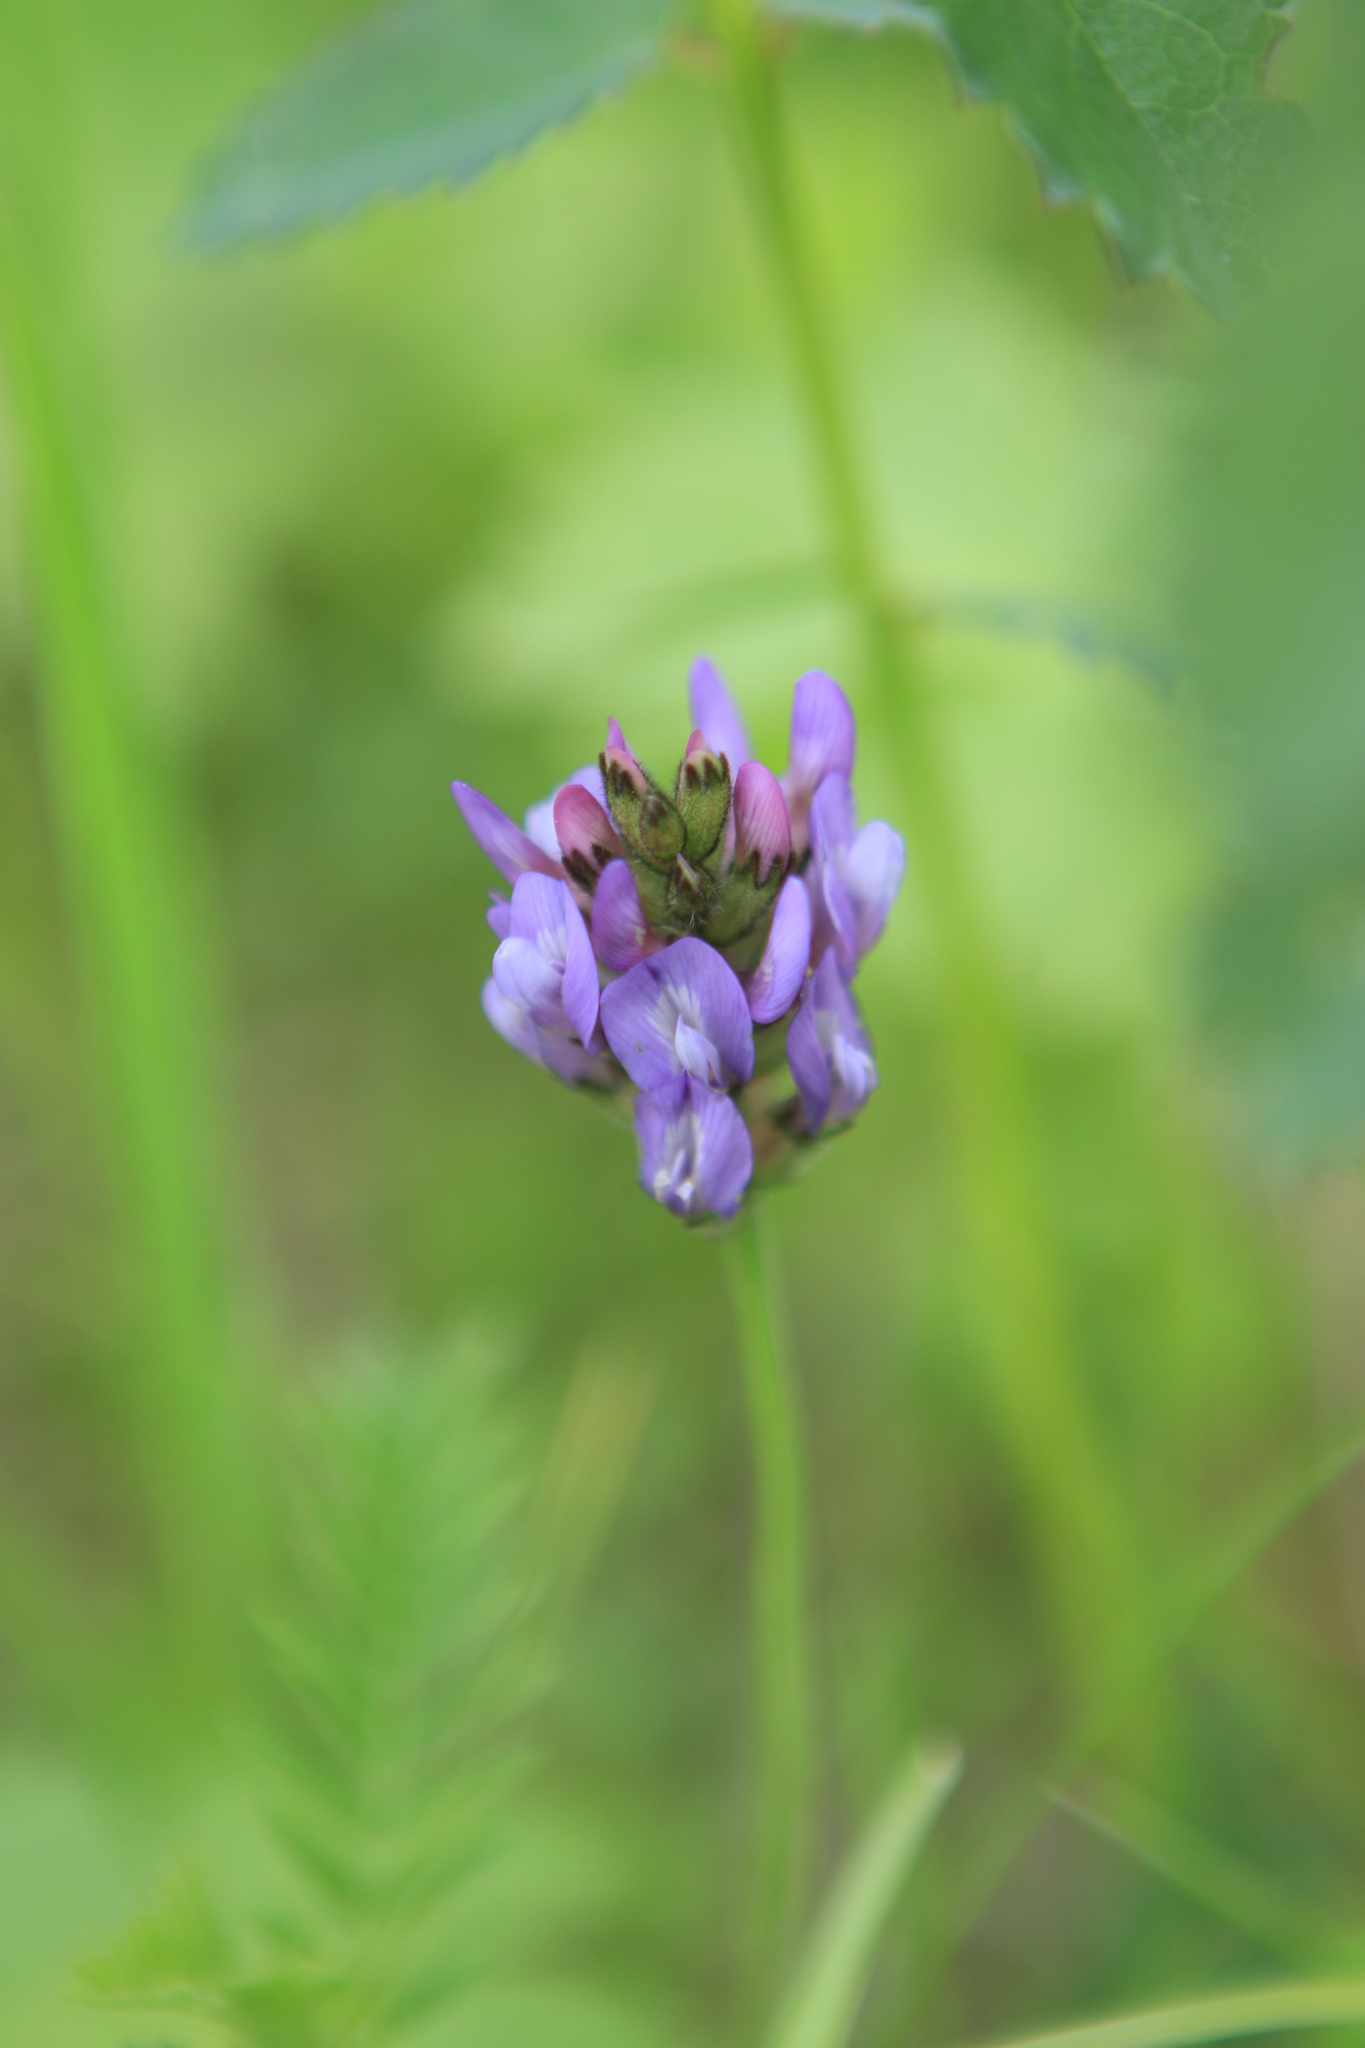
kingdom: Plantae
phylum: Tracheophyta
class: Magnoliopsida
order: Fabales
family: Fabaceae
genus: Astragalus
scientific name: Astragalus danicus
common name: Purple milk-vetch
